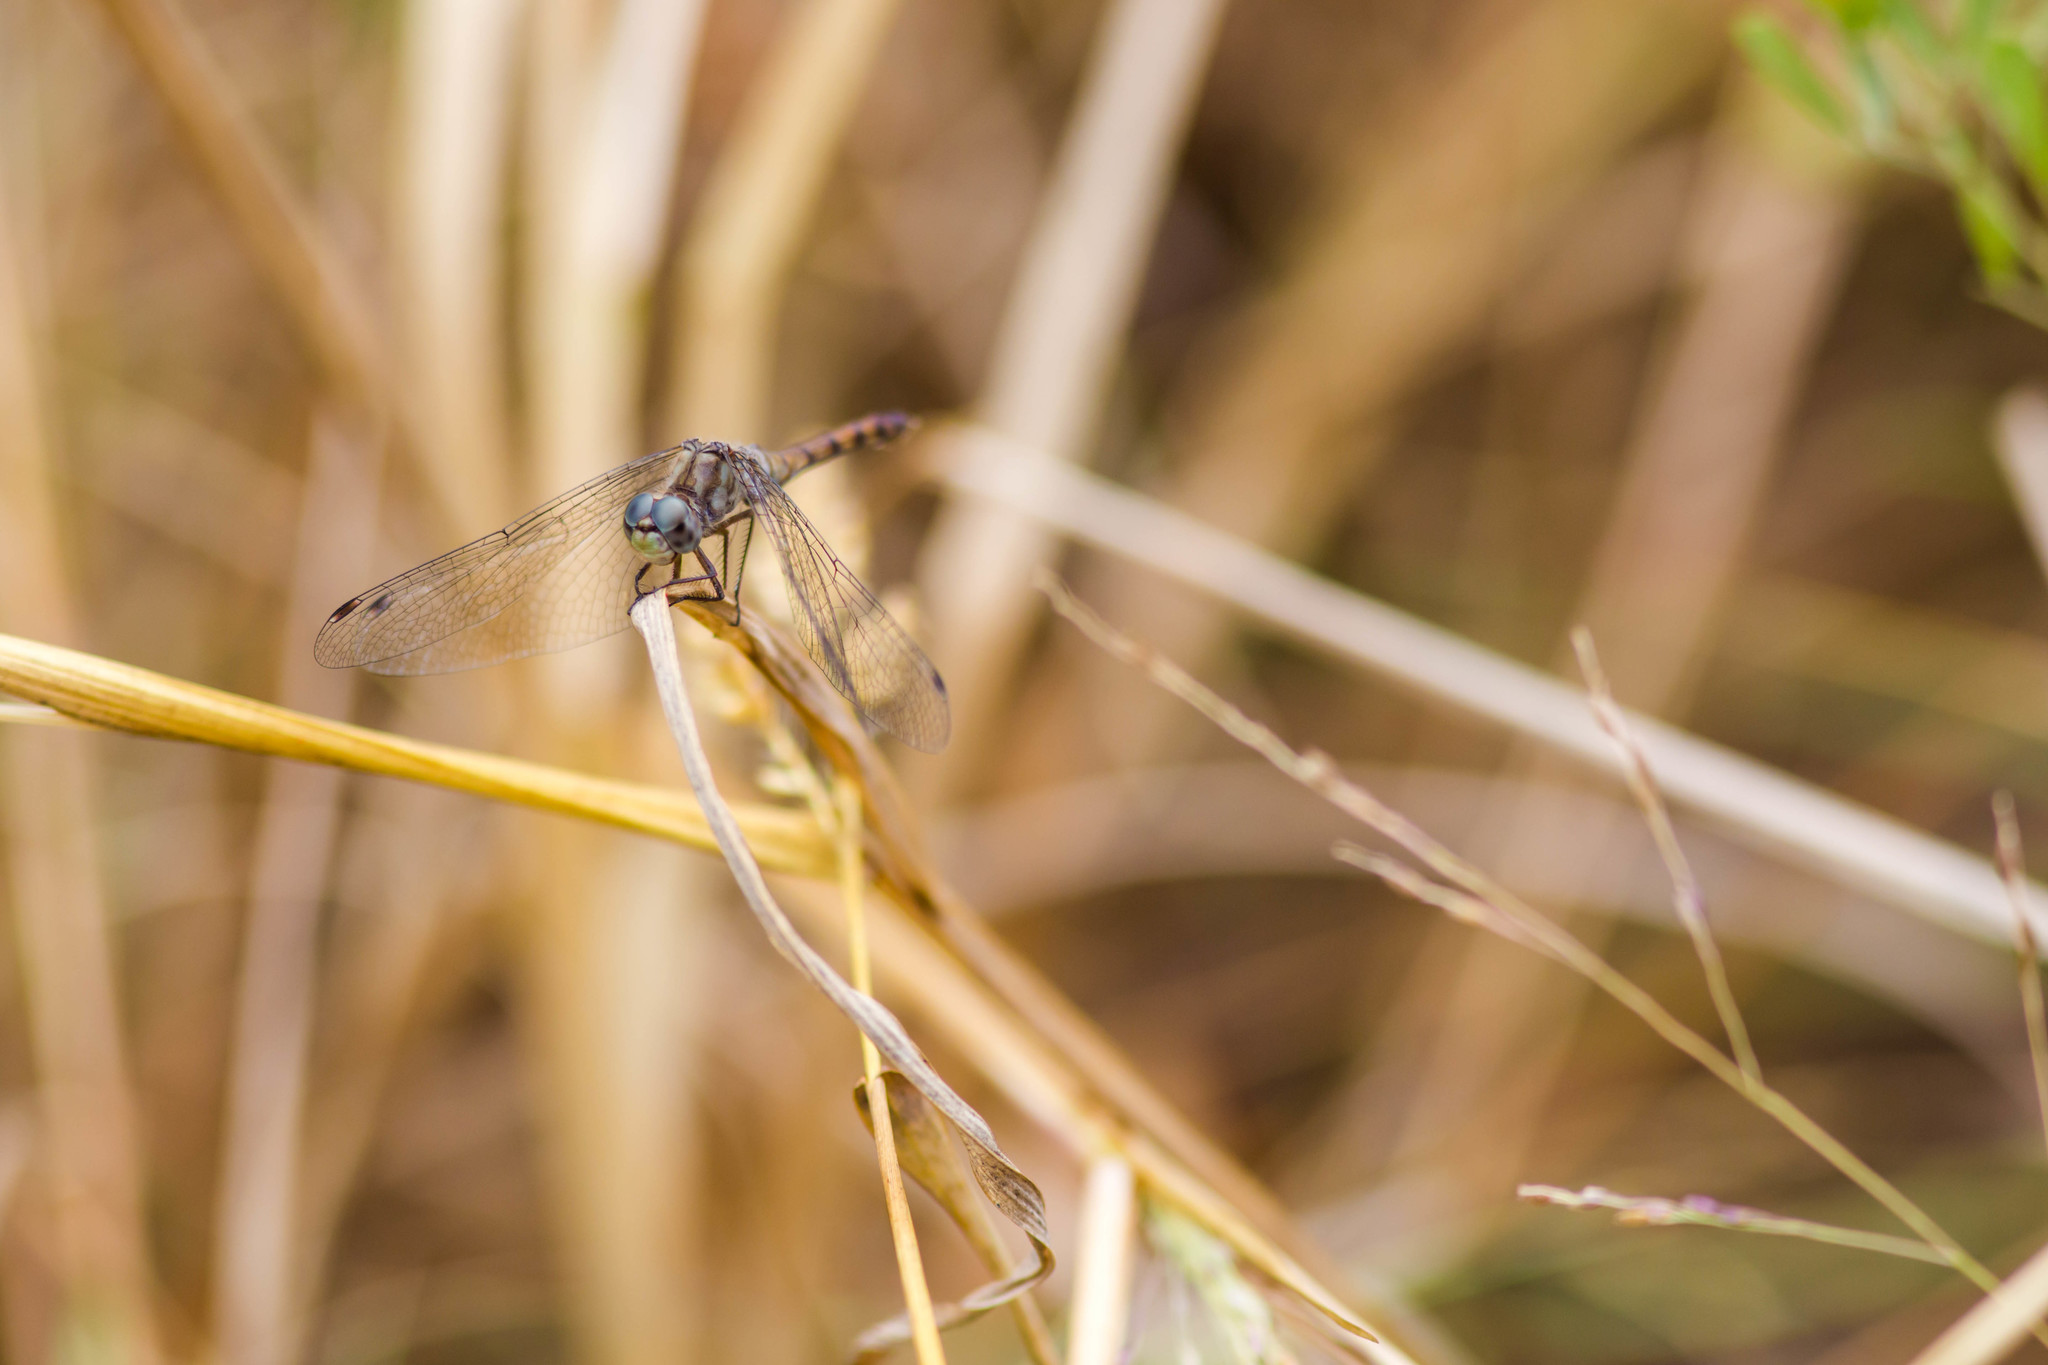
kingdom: Animalia
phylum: Arthropoda
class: Insecta
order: Odonata
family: Libellulidae
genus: Sympetrum
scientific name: Sympetrum ambiguum
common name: Blue-faced meadowhawk
